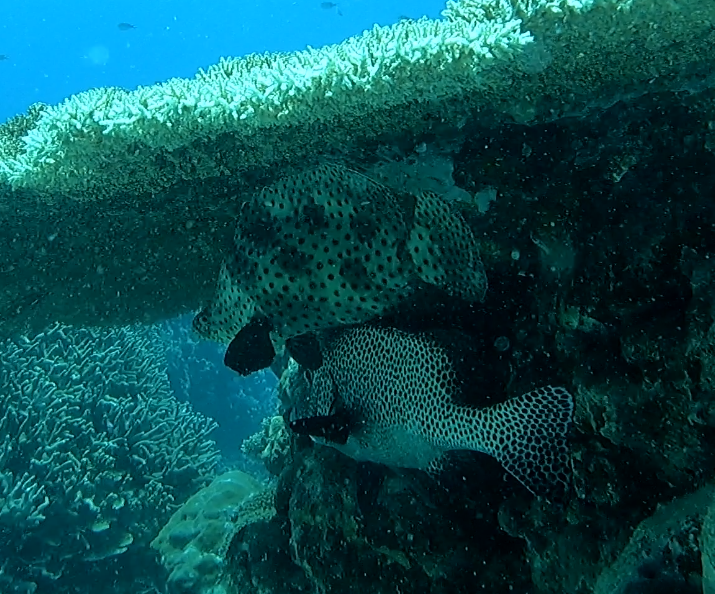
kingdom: Animalia
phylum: Chordata
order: Perciformes
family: Serranidae
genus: Cromileptes
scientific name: Cromileptes altivelis
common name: Humpback grouper
